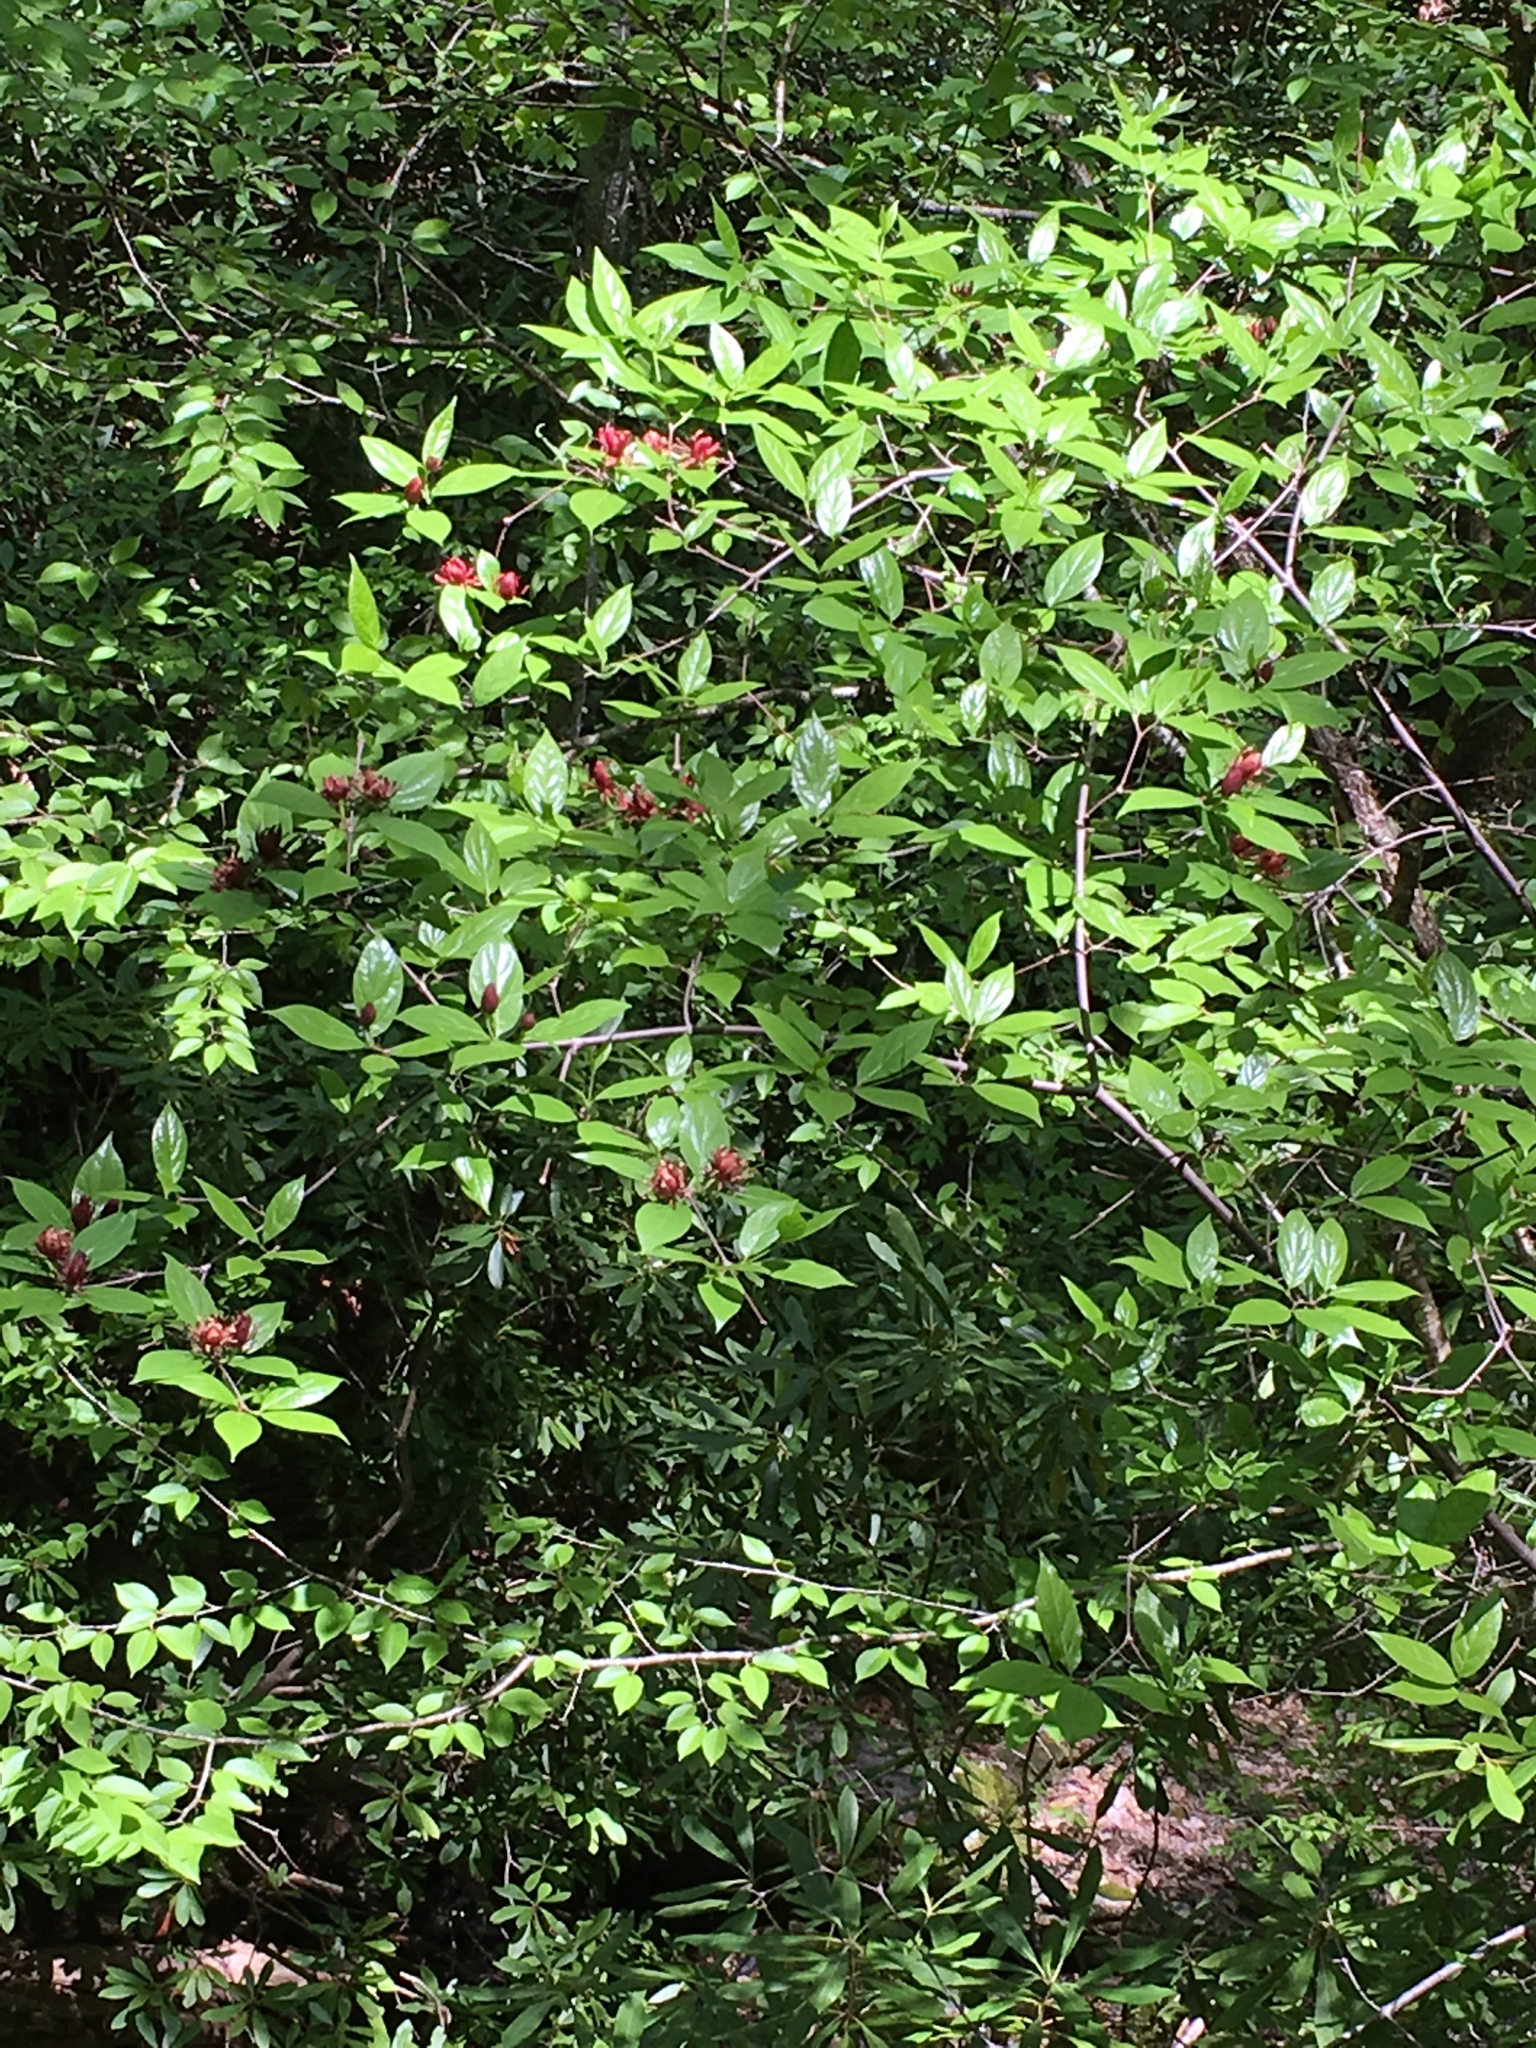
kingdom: Plantae
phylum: Tracheophyta
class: Magnoliopsida
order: Laurales
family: Calycanthaceae
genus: Calycanthus
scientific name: Calycanthus floridus
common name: Carolina-allspice
